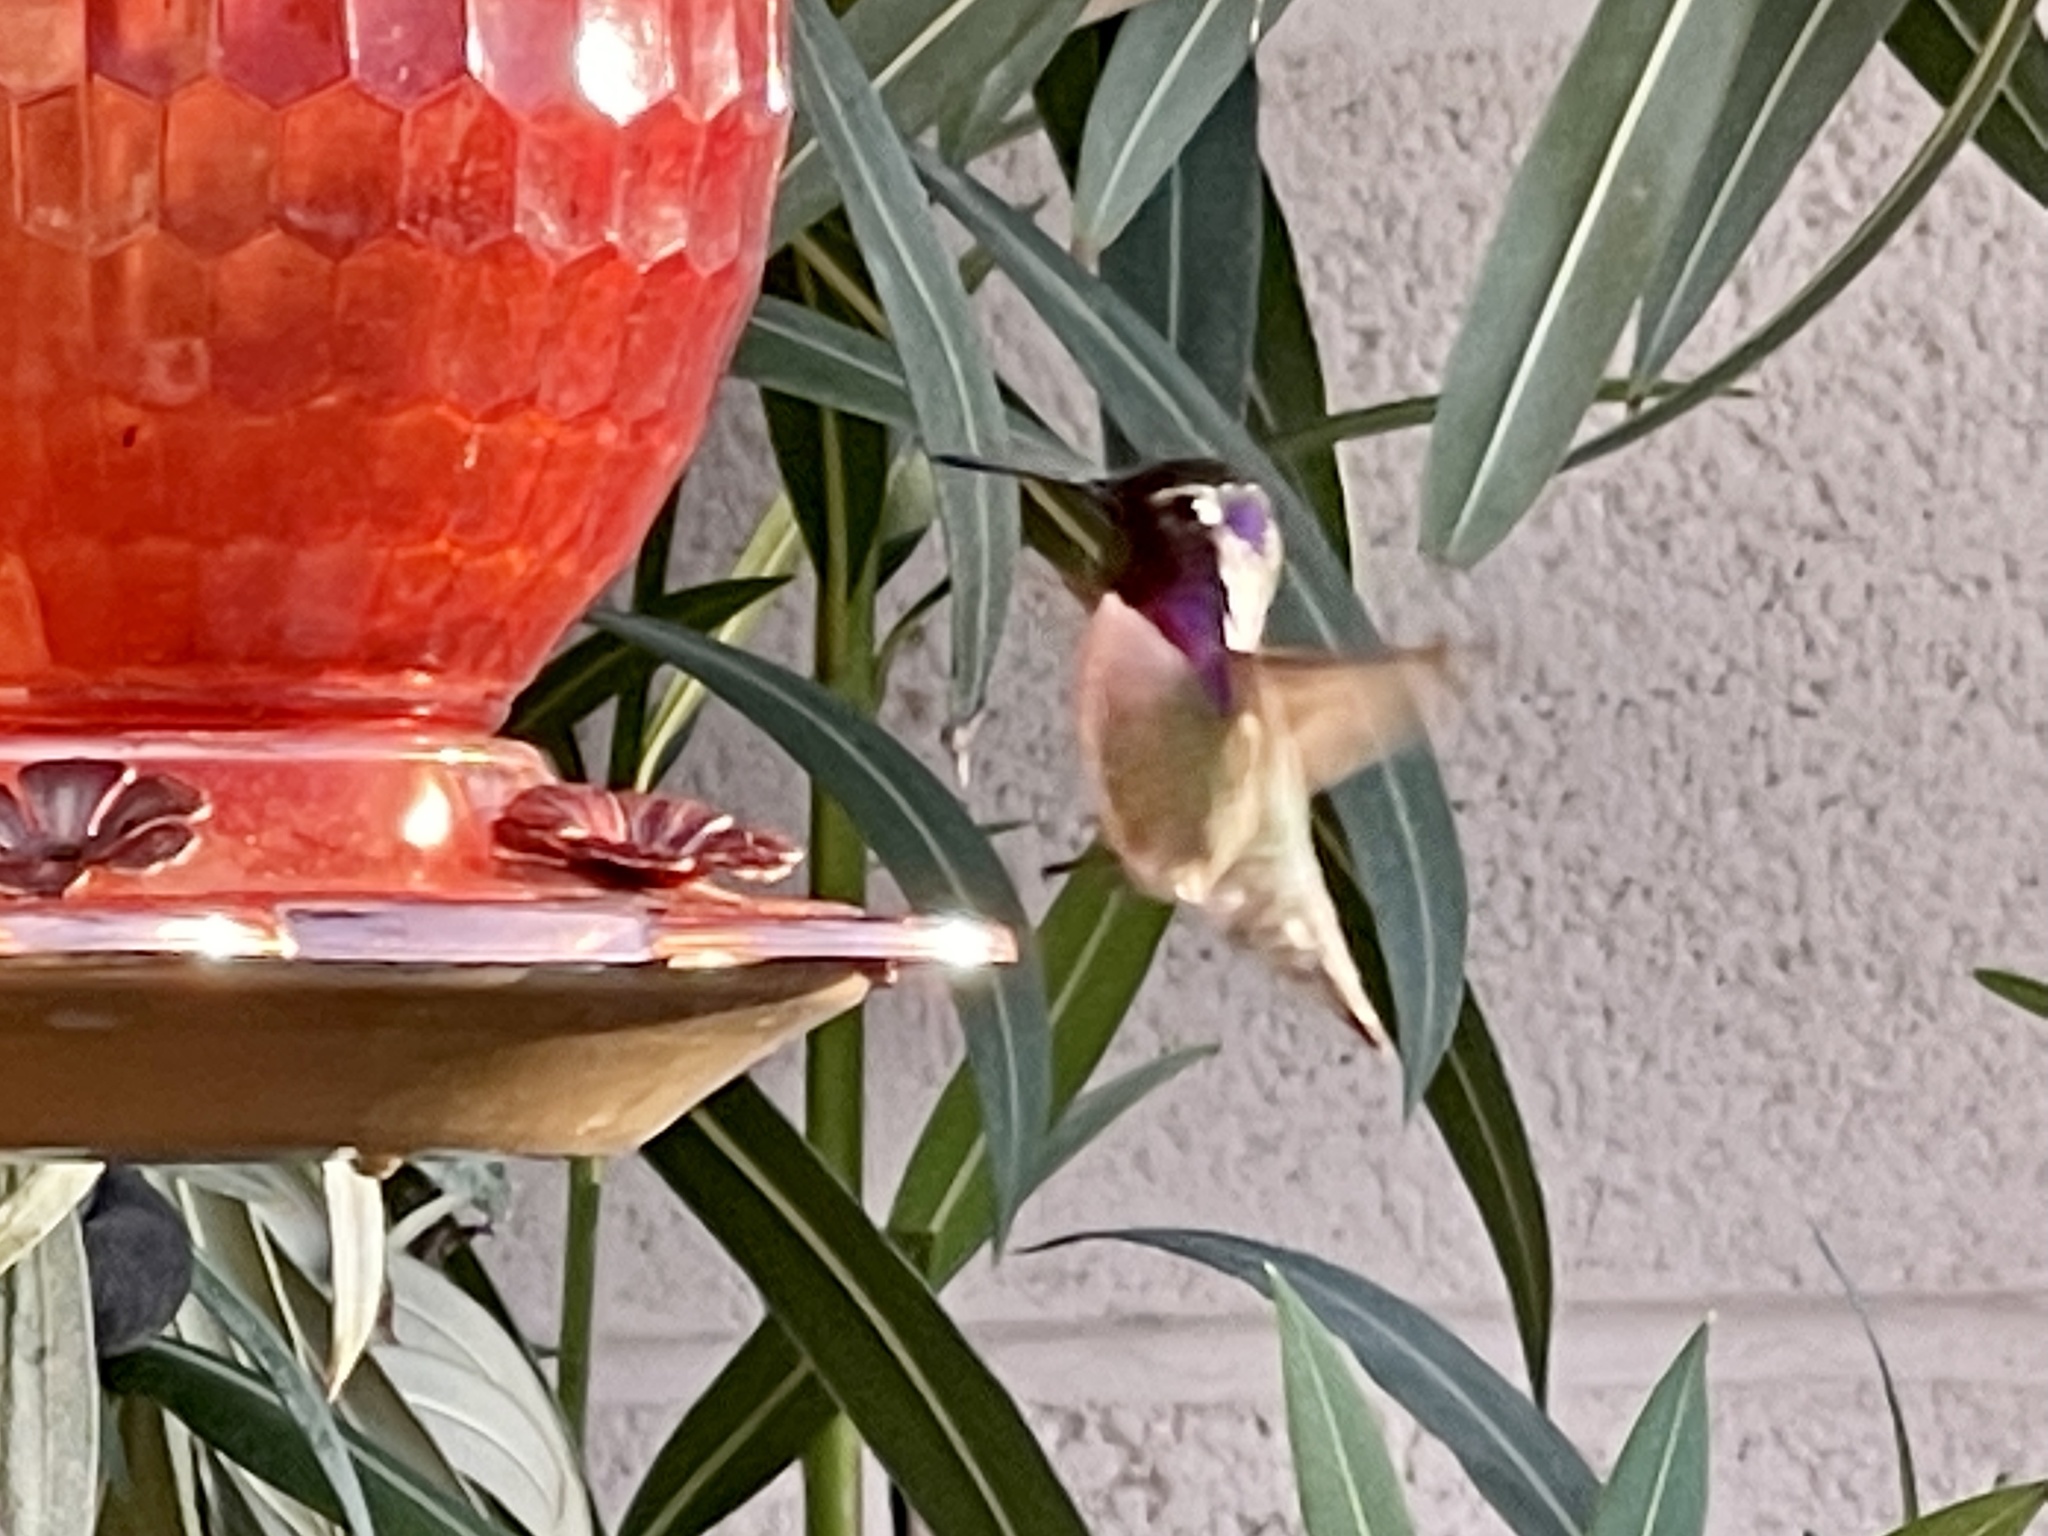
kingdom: Animalia
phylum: Chordata
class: Aves
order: Apodiformes
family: Trochilidae
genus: Calypte
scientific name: Calypte costae
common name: Costa's hummingbird
